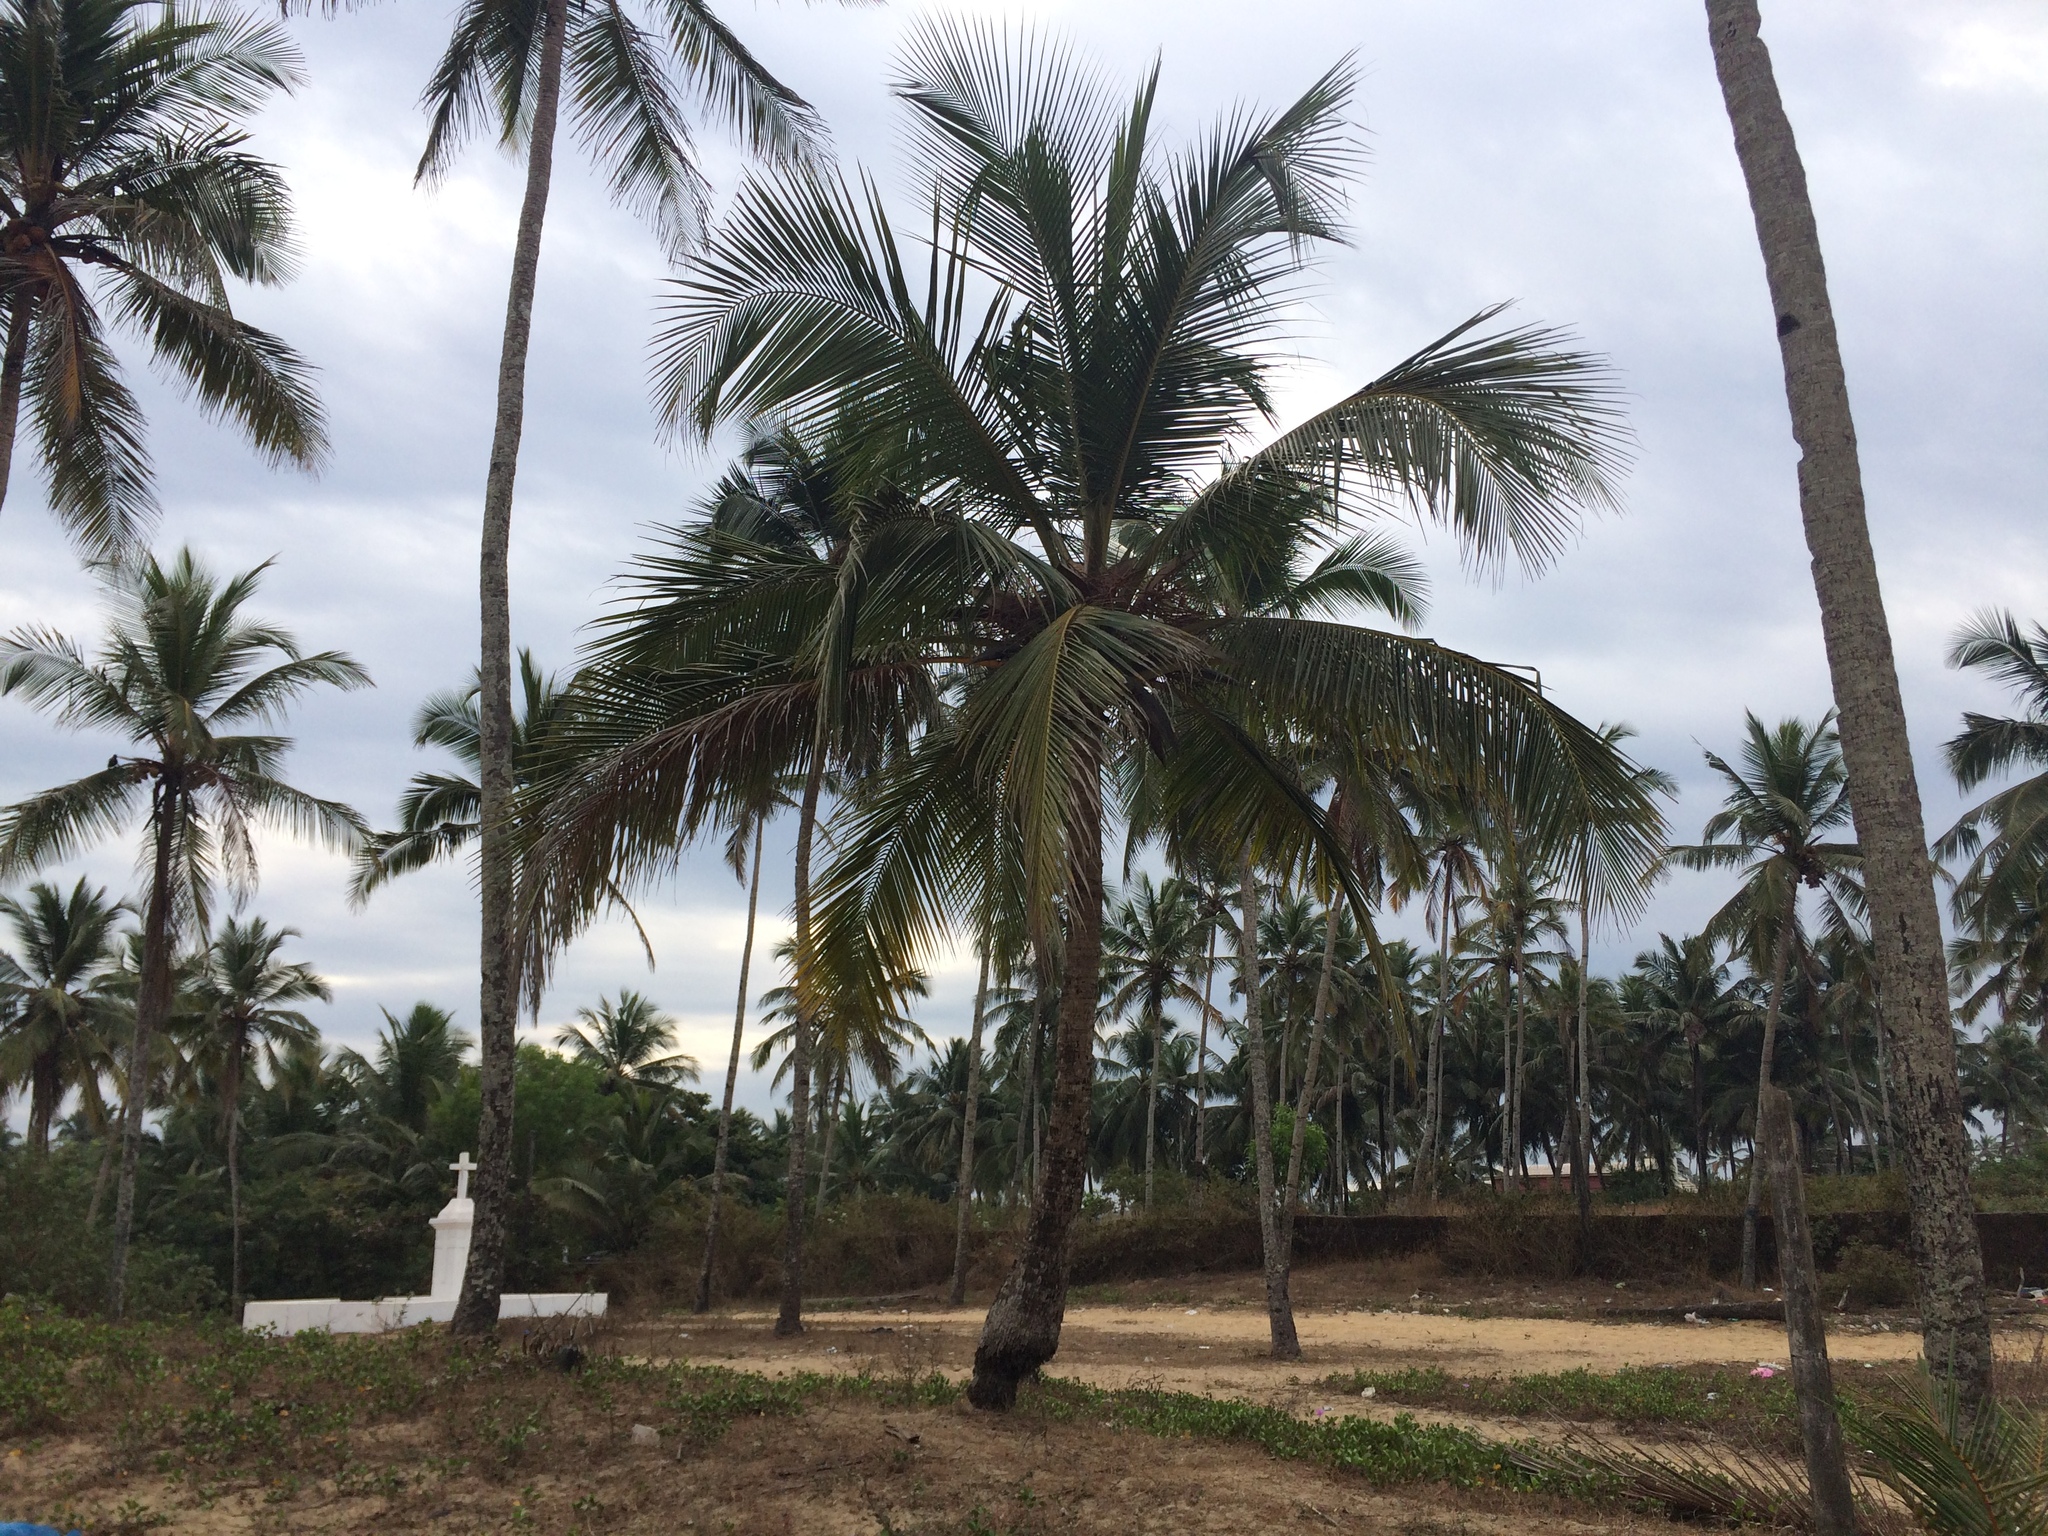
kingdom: Plantae
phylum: Tracheophyta
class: Liliopsida
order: Arecales
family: Arecaceae
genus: Cocos
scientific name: Cocos nucifera
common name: Coconut palm
